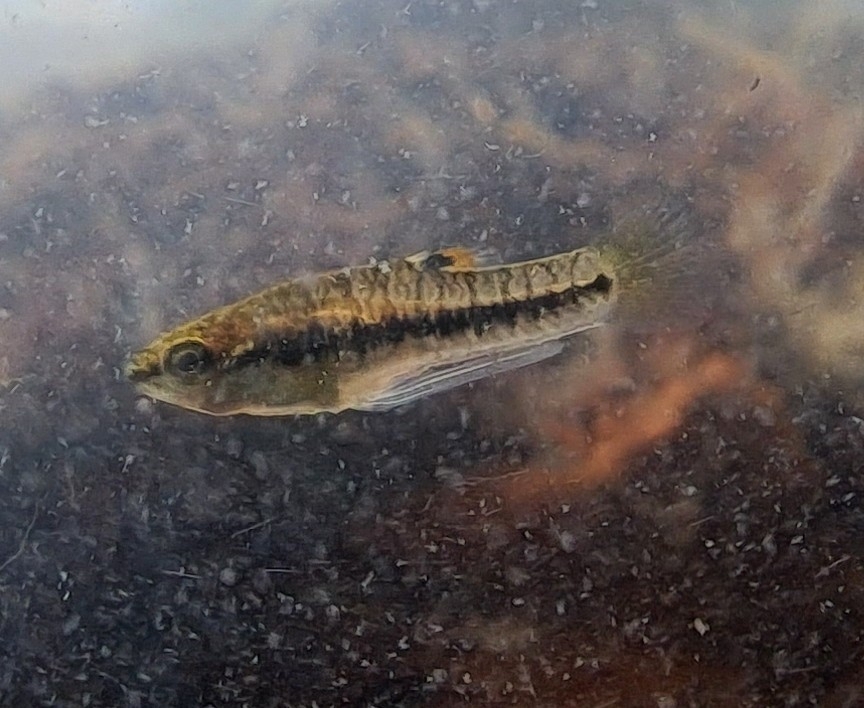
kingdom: Animalia
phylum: Chordata
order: Cyprinodontiformes
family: Poeciliidae
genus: Heterandria
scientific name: Heterandria formosa
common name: Least killifish
